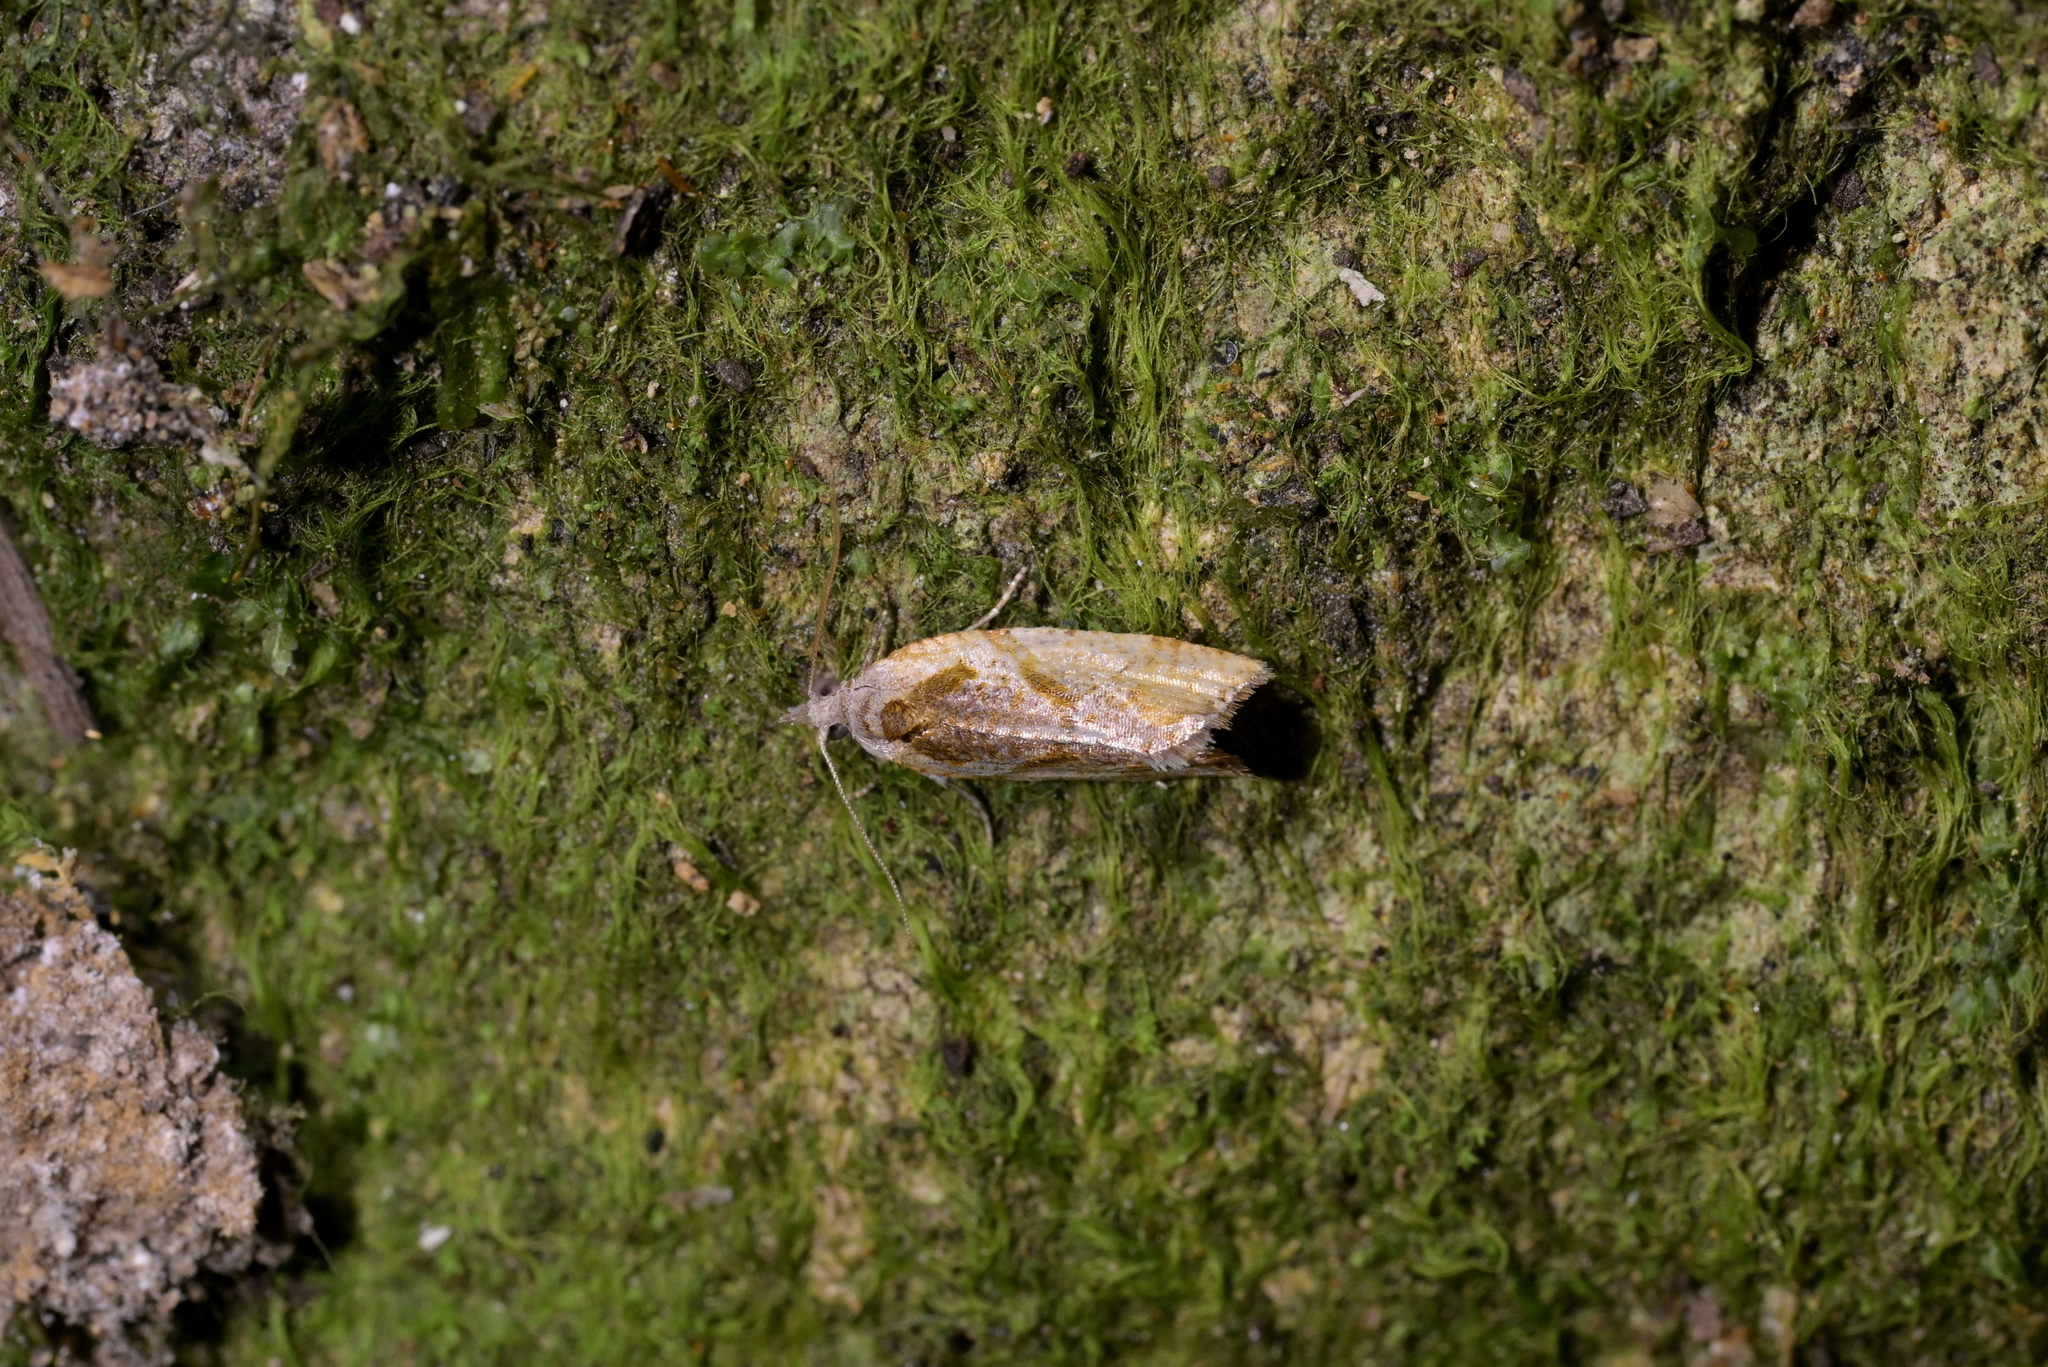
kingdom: Animalia
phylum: Arthropoda
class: Insecta
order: Lepidoptera
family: Tortricidae
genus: Pyrgotis
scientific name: Pyrgotis plagiatana
